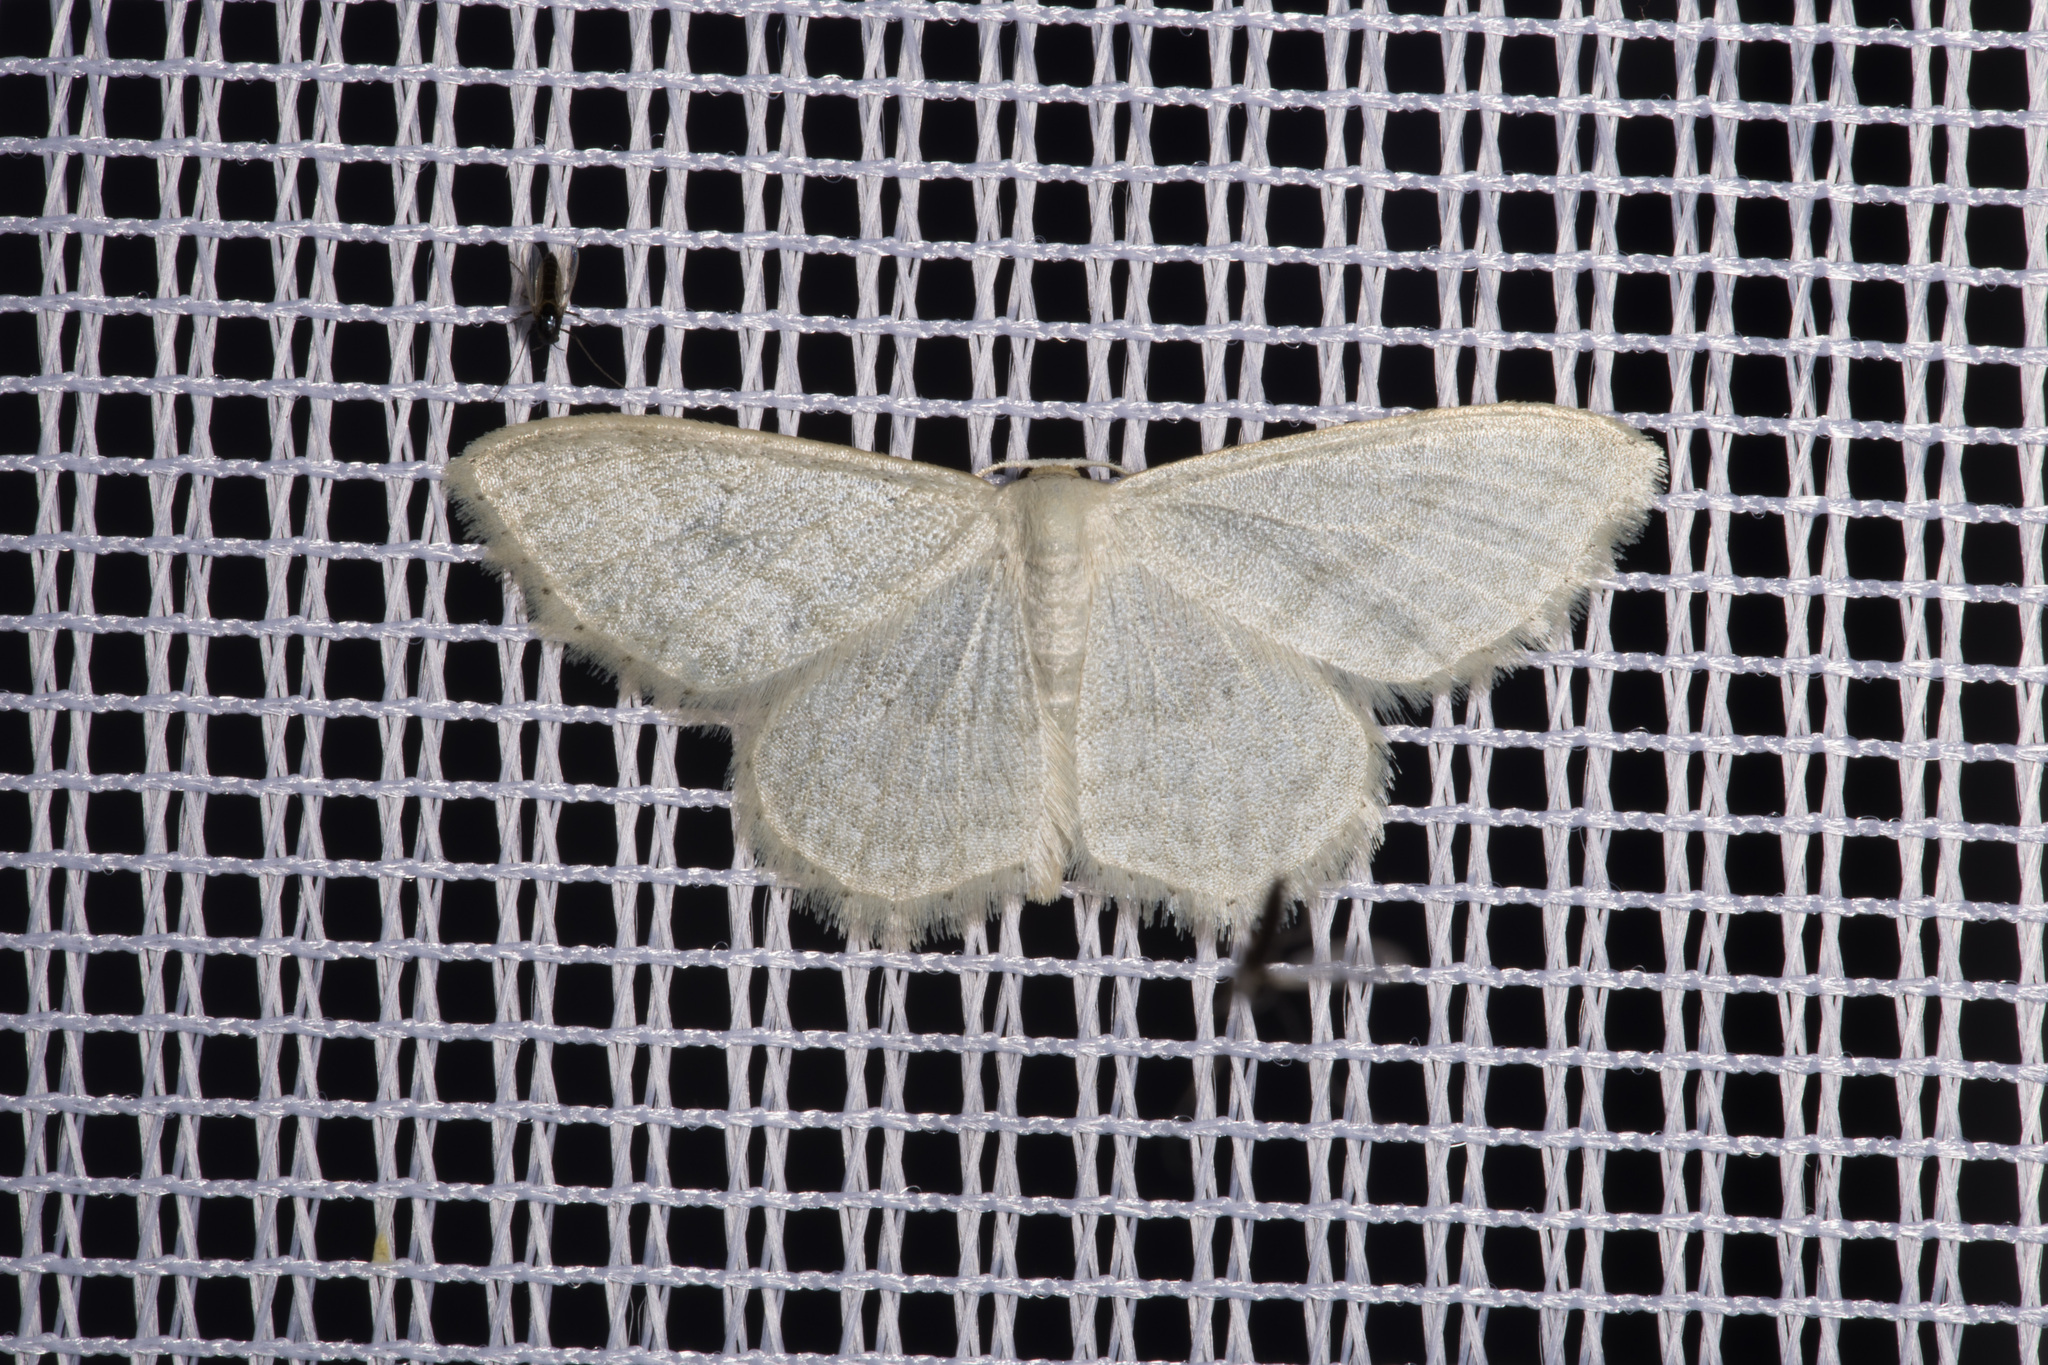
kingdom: Animalia
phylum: Arthropoda
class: Insecta
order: Lepidoptera
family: Geometridae
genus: Idaea
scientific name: Idaea subsericeata
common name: Satin wave
